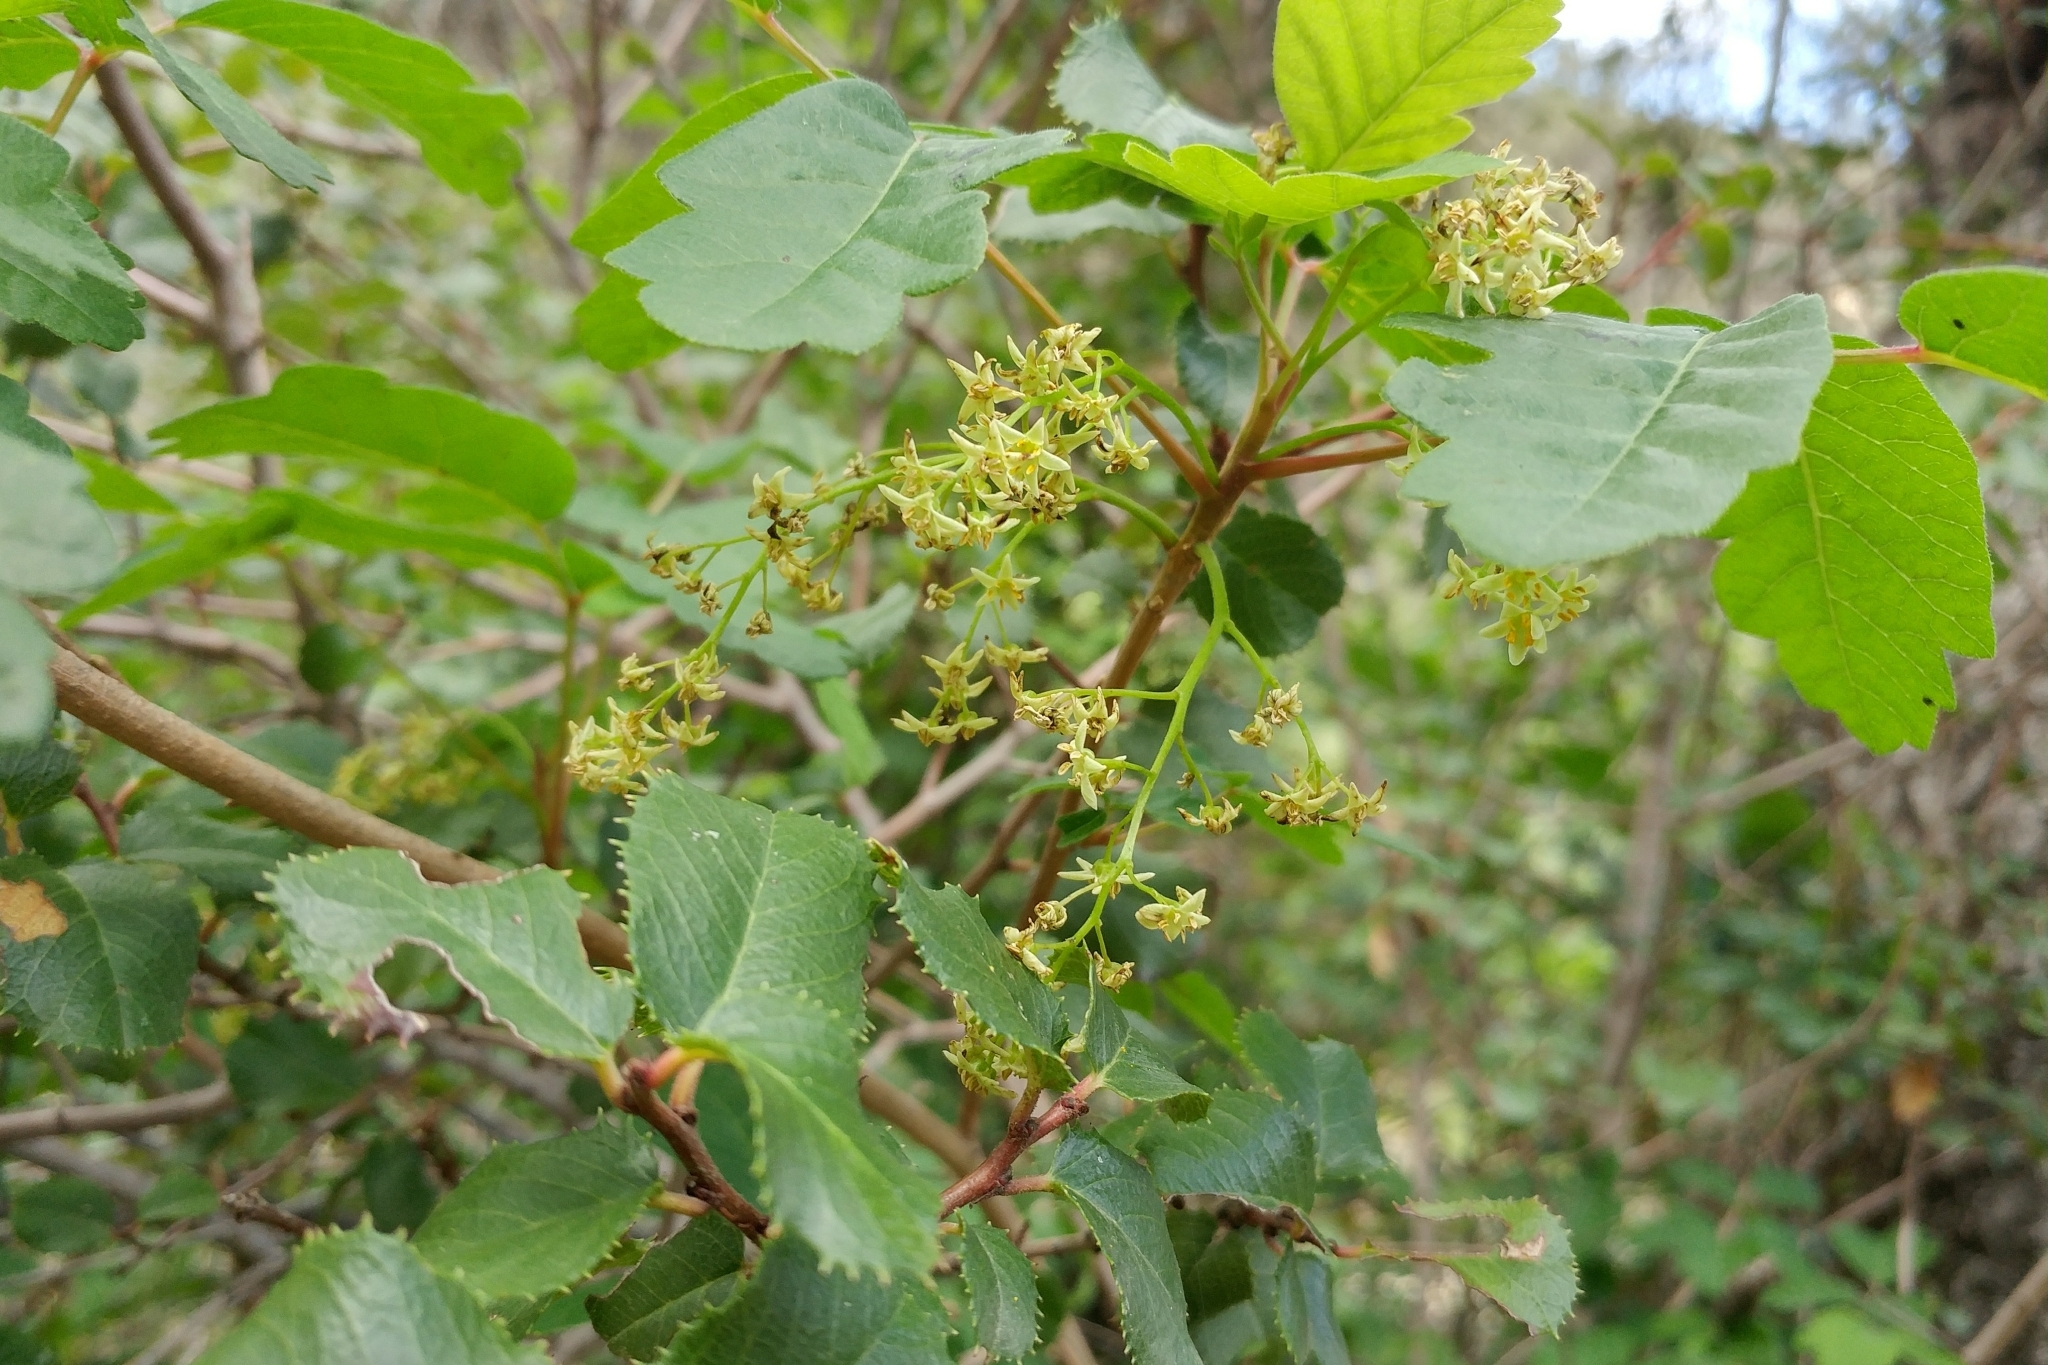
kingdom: Plantae
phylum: Tracheophyta
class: Magnoliopsida
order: Sapindales
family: Anacardiaceae
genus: Toxicodendron
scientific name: Toxicodendron diversilobum
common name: Pacific poison-oak
